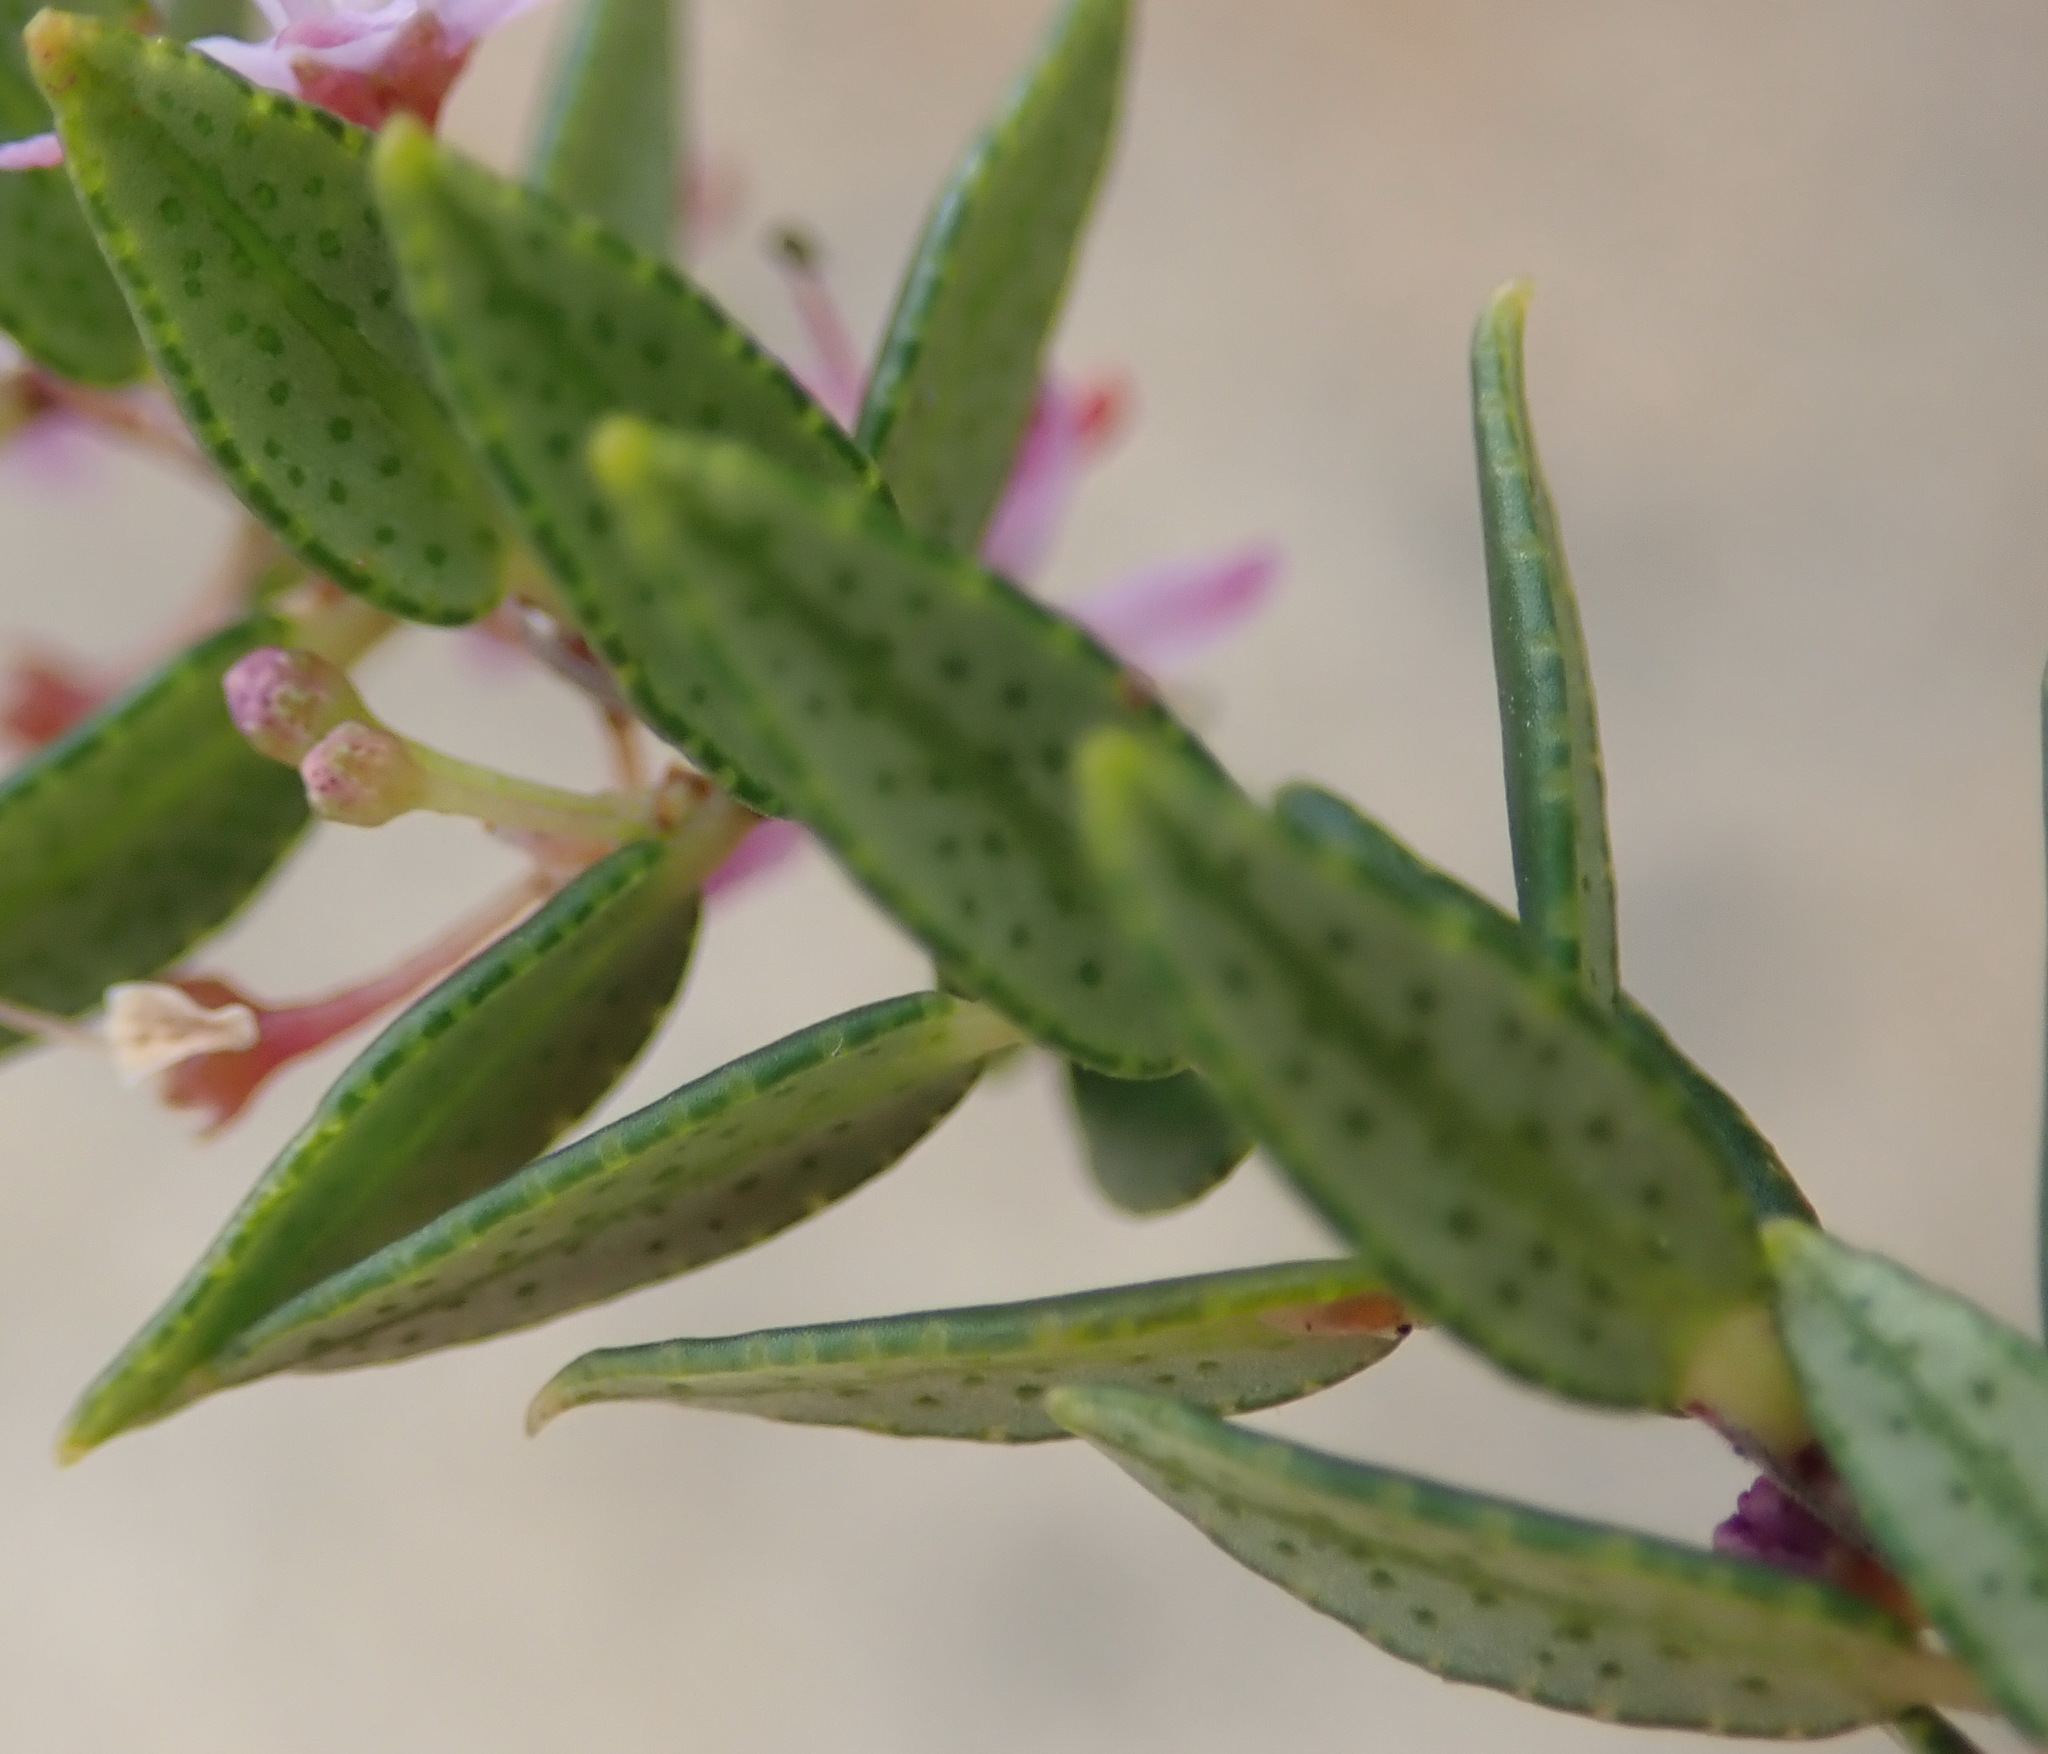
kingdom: Plantae
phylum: Tracheophyta
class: Magnoliopsida
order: Sapindales
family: Rutaceae
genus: Agathosma
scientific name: Agathosma ovata
